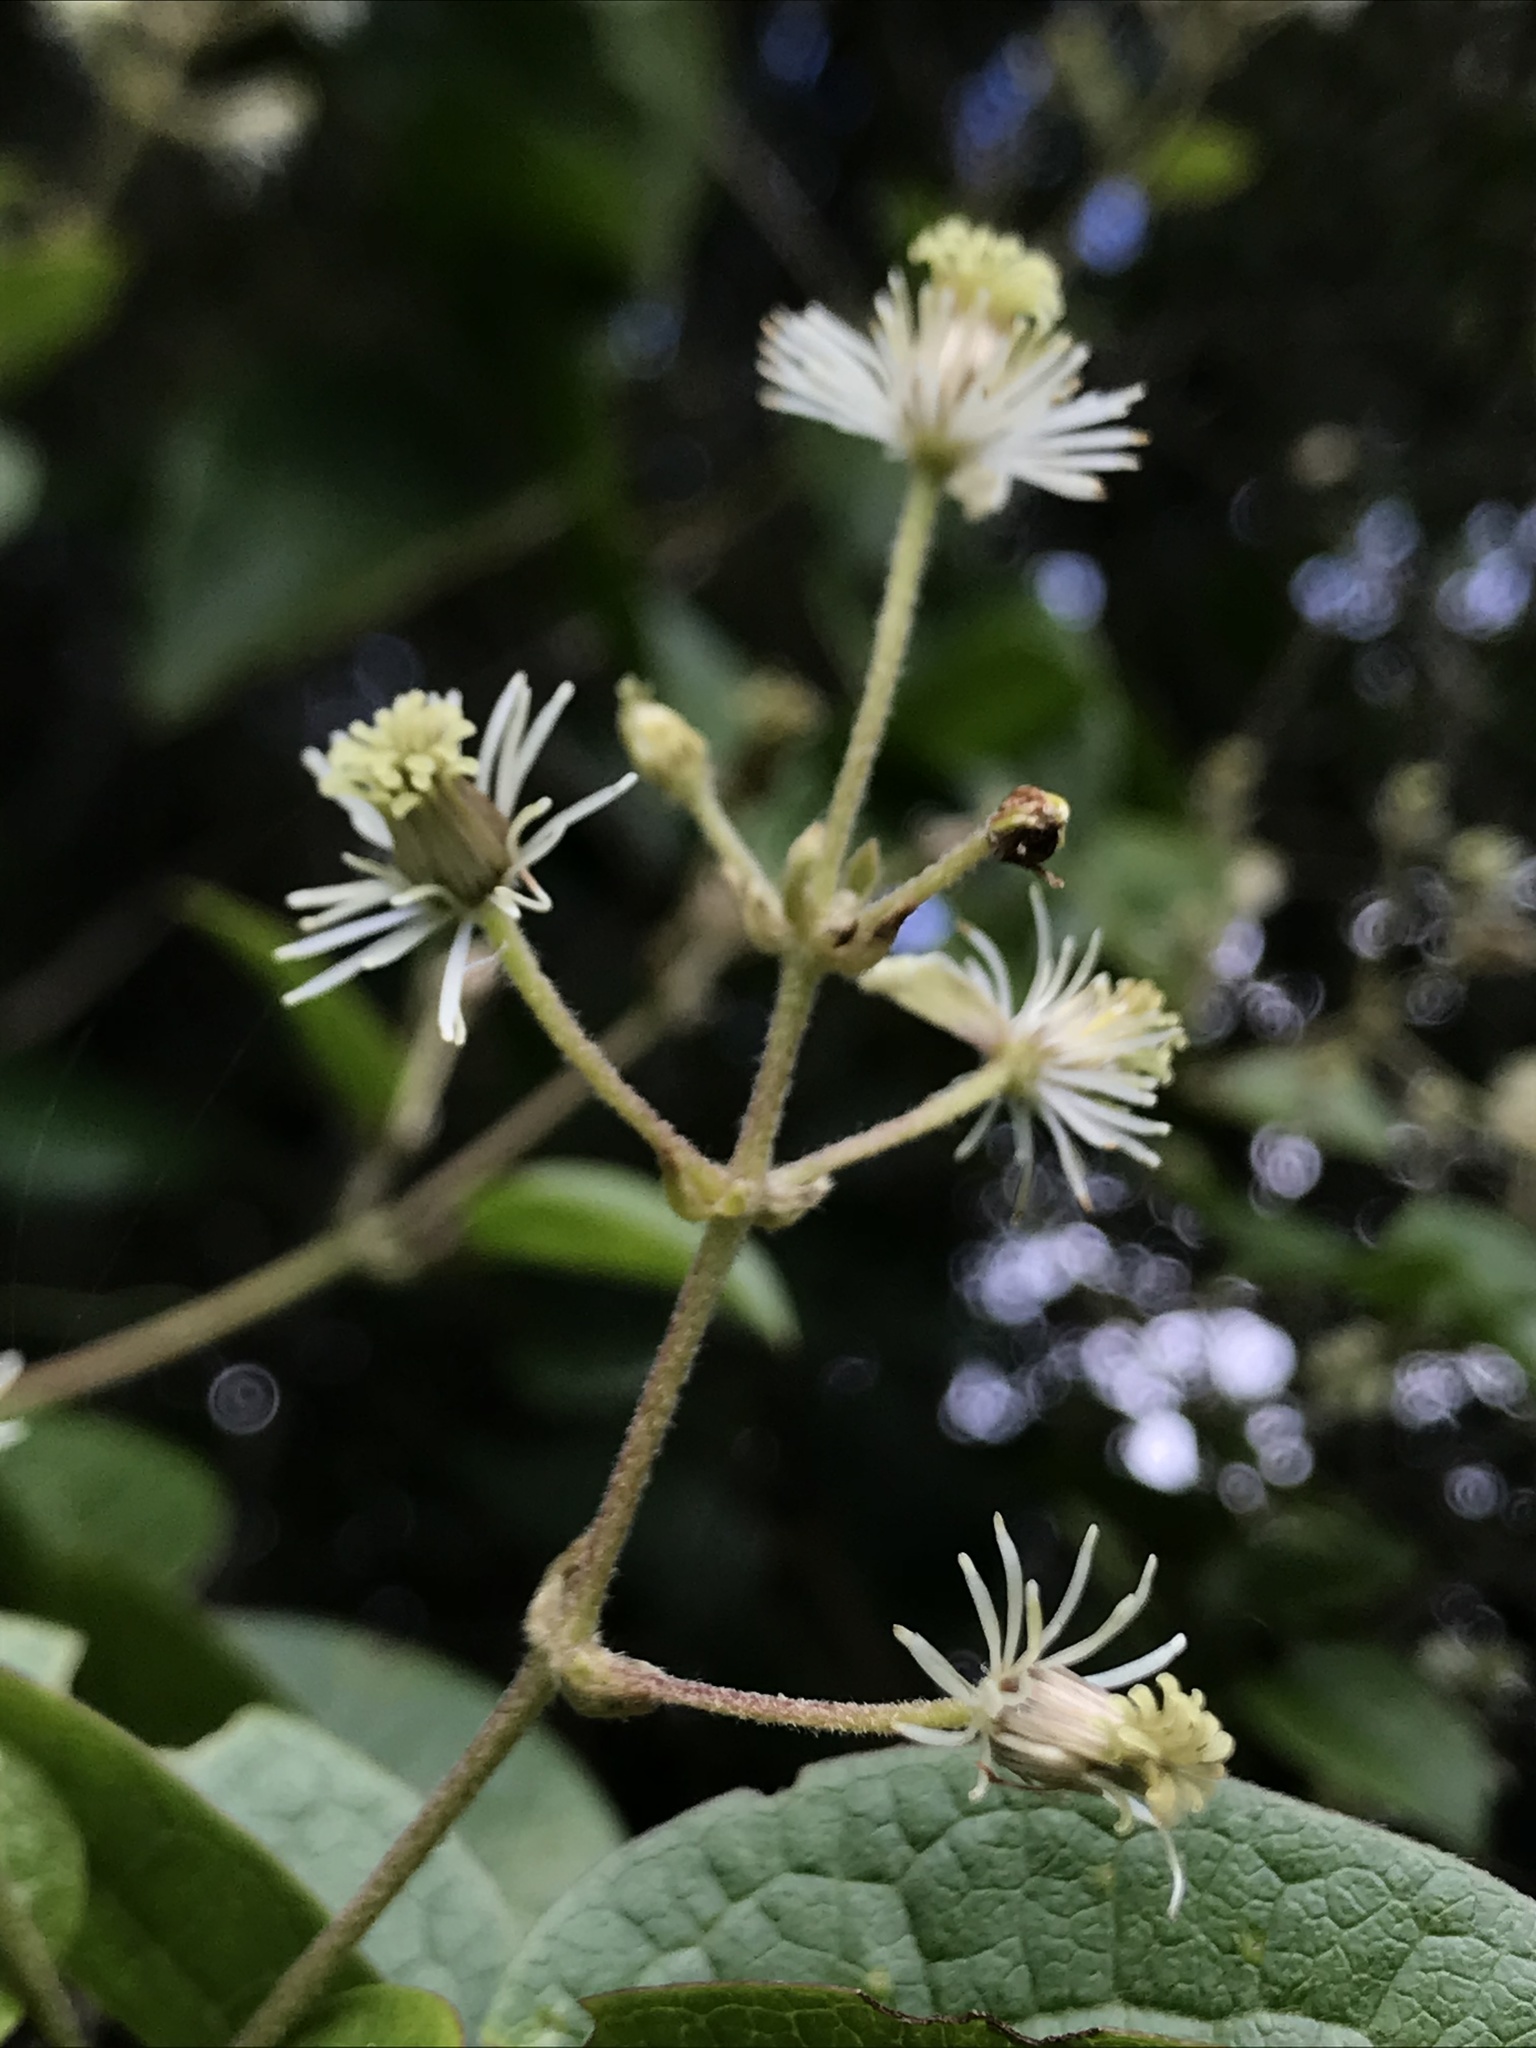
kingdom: Plantae
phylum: Tracheophyta
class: Magnoliopsida
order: Ranunculales
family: Ranunculaceae
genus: Clematis
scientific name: Clematis haenkeana
